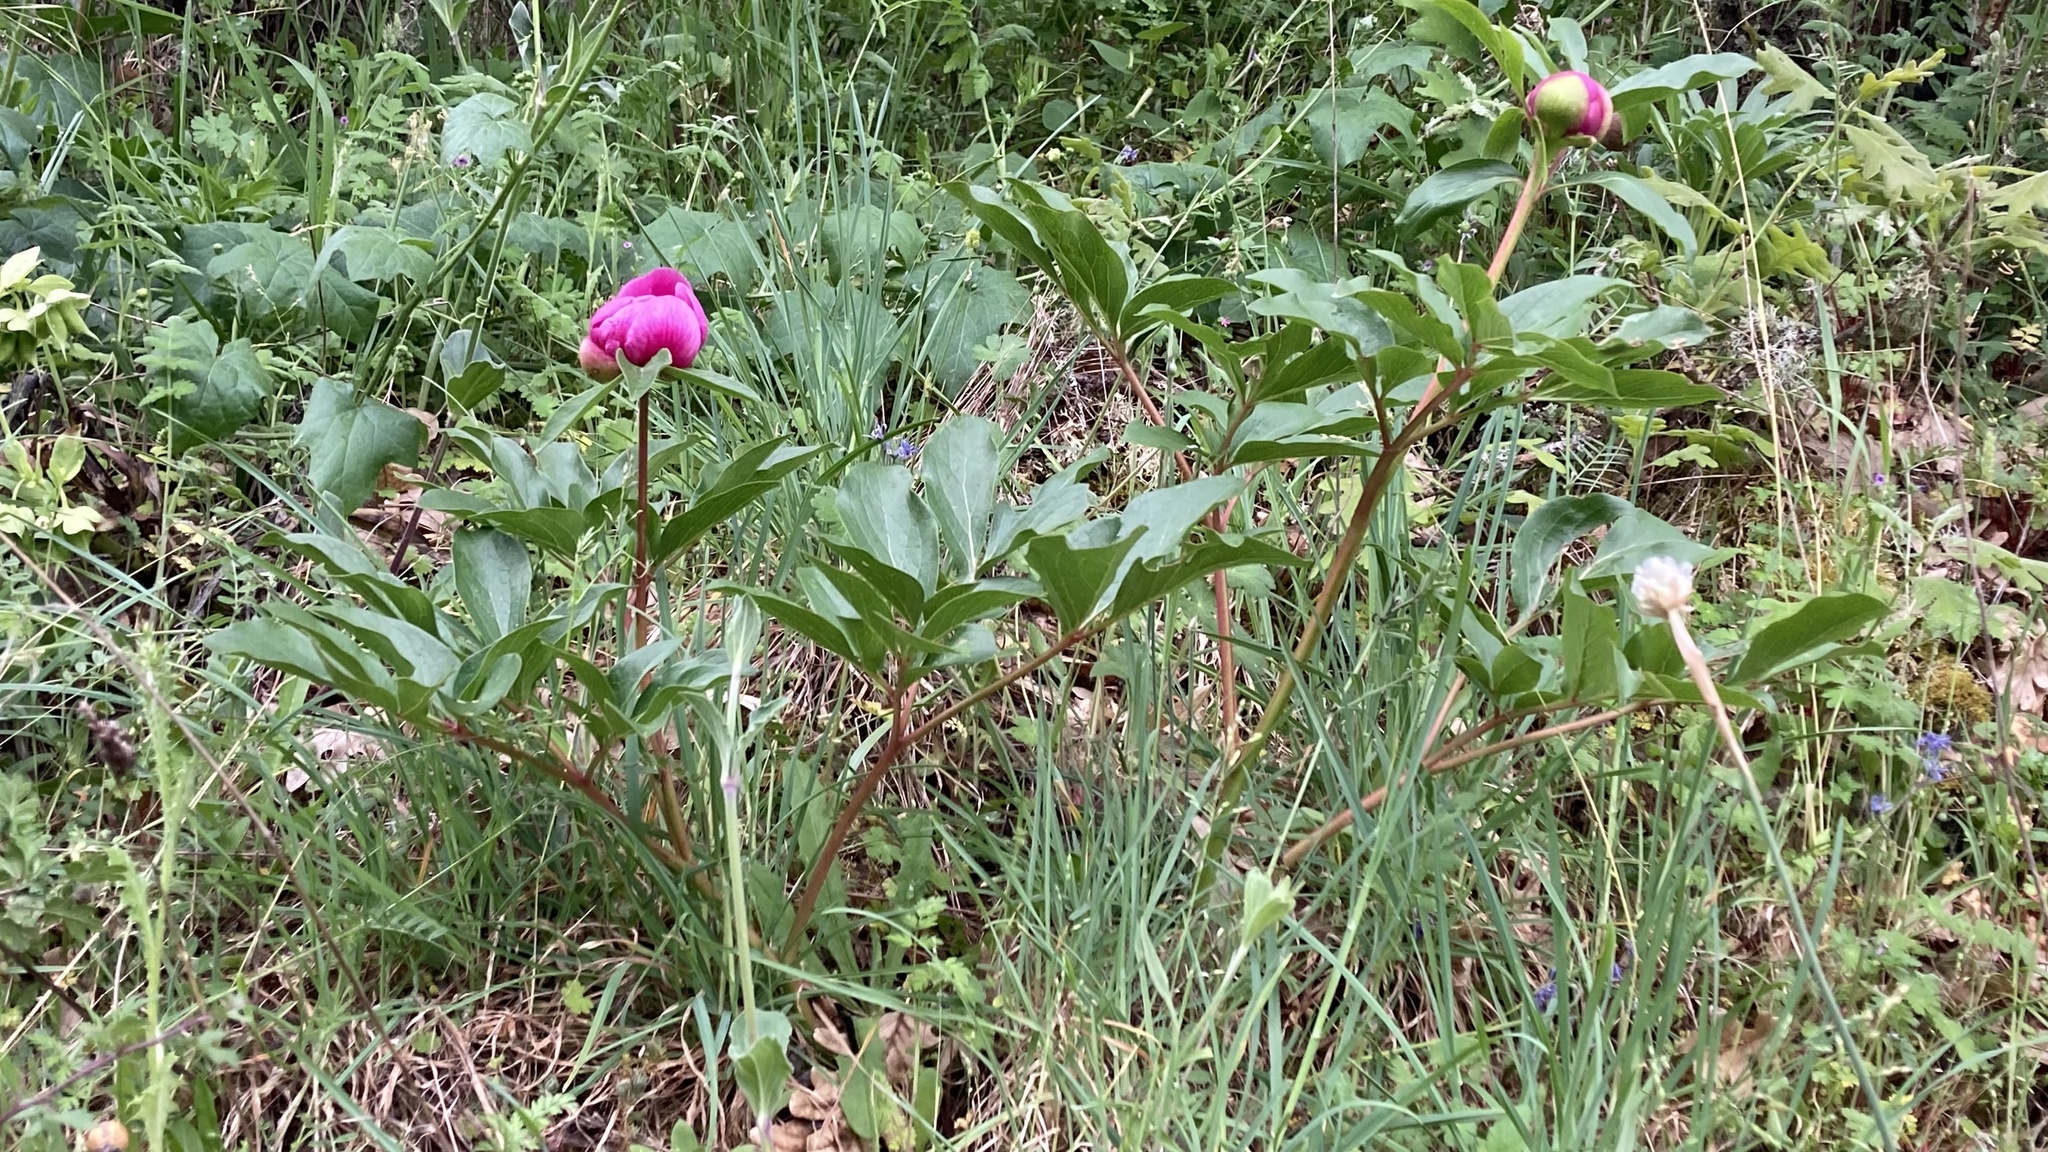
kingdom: Plantae
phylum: Tracheophyta
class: Magnoliopsida
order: Saxifragales
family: Paeoniaceae
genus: Paeonia
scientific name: Paeonia broteroi
